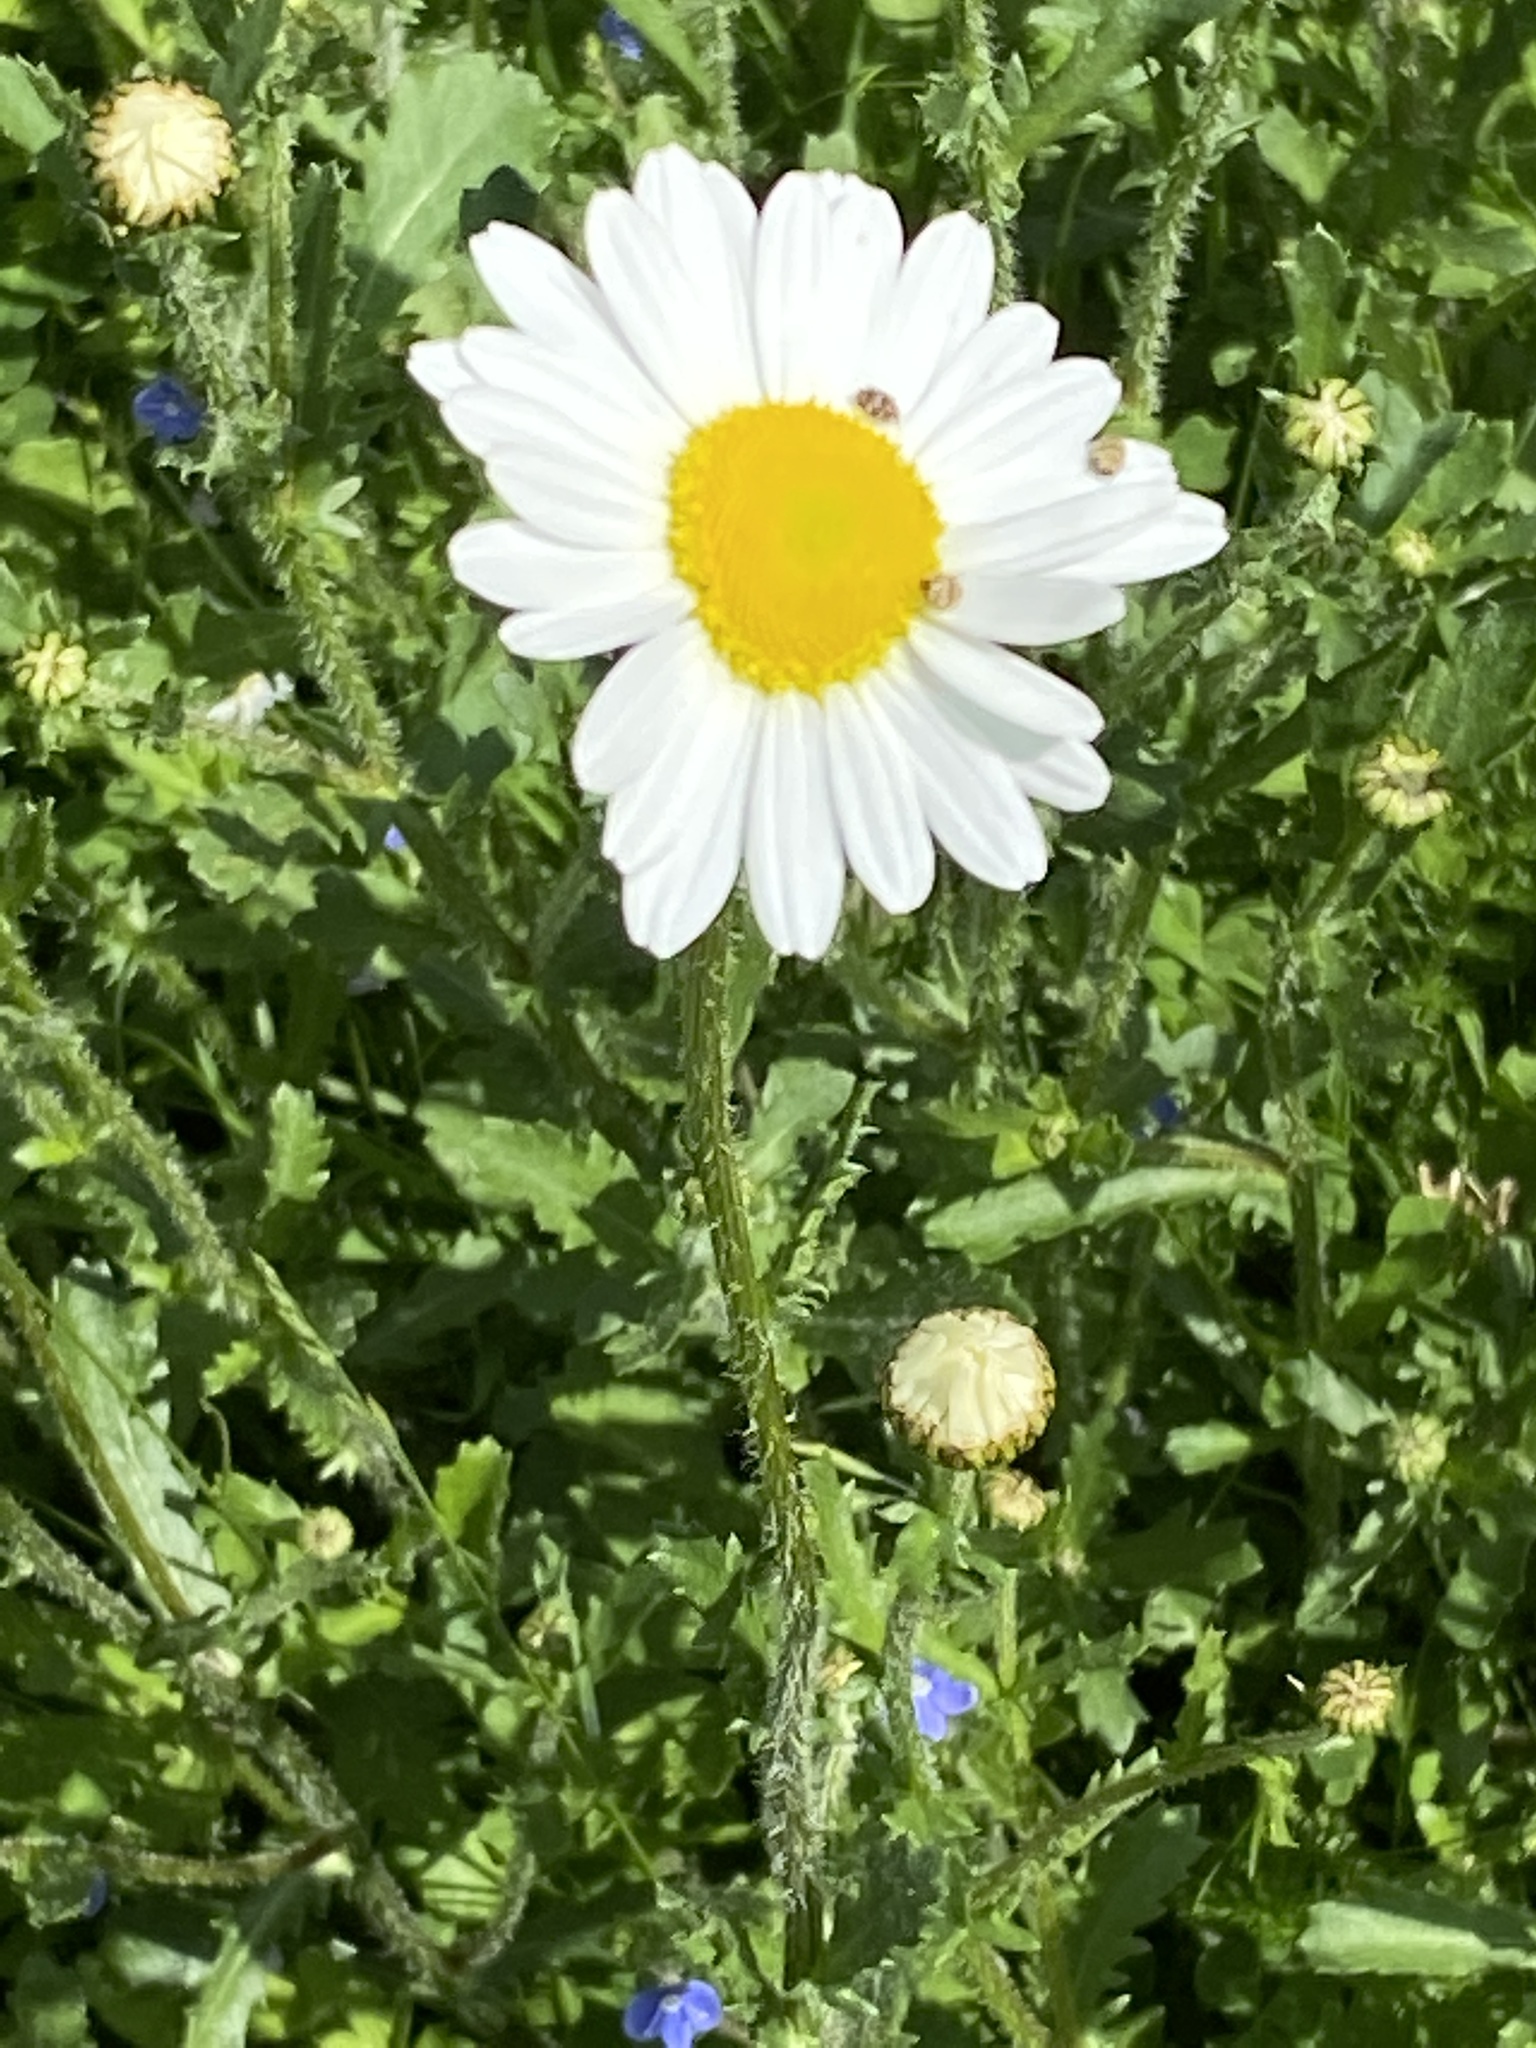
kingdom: Plantae
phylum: Tracheophyta
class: Magnoliopsida
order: Asterales
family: Asteraceae
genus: Leucanthemum
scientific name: Leucanthemum vulgare
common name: Oxeye daisy
